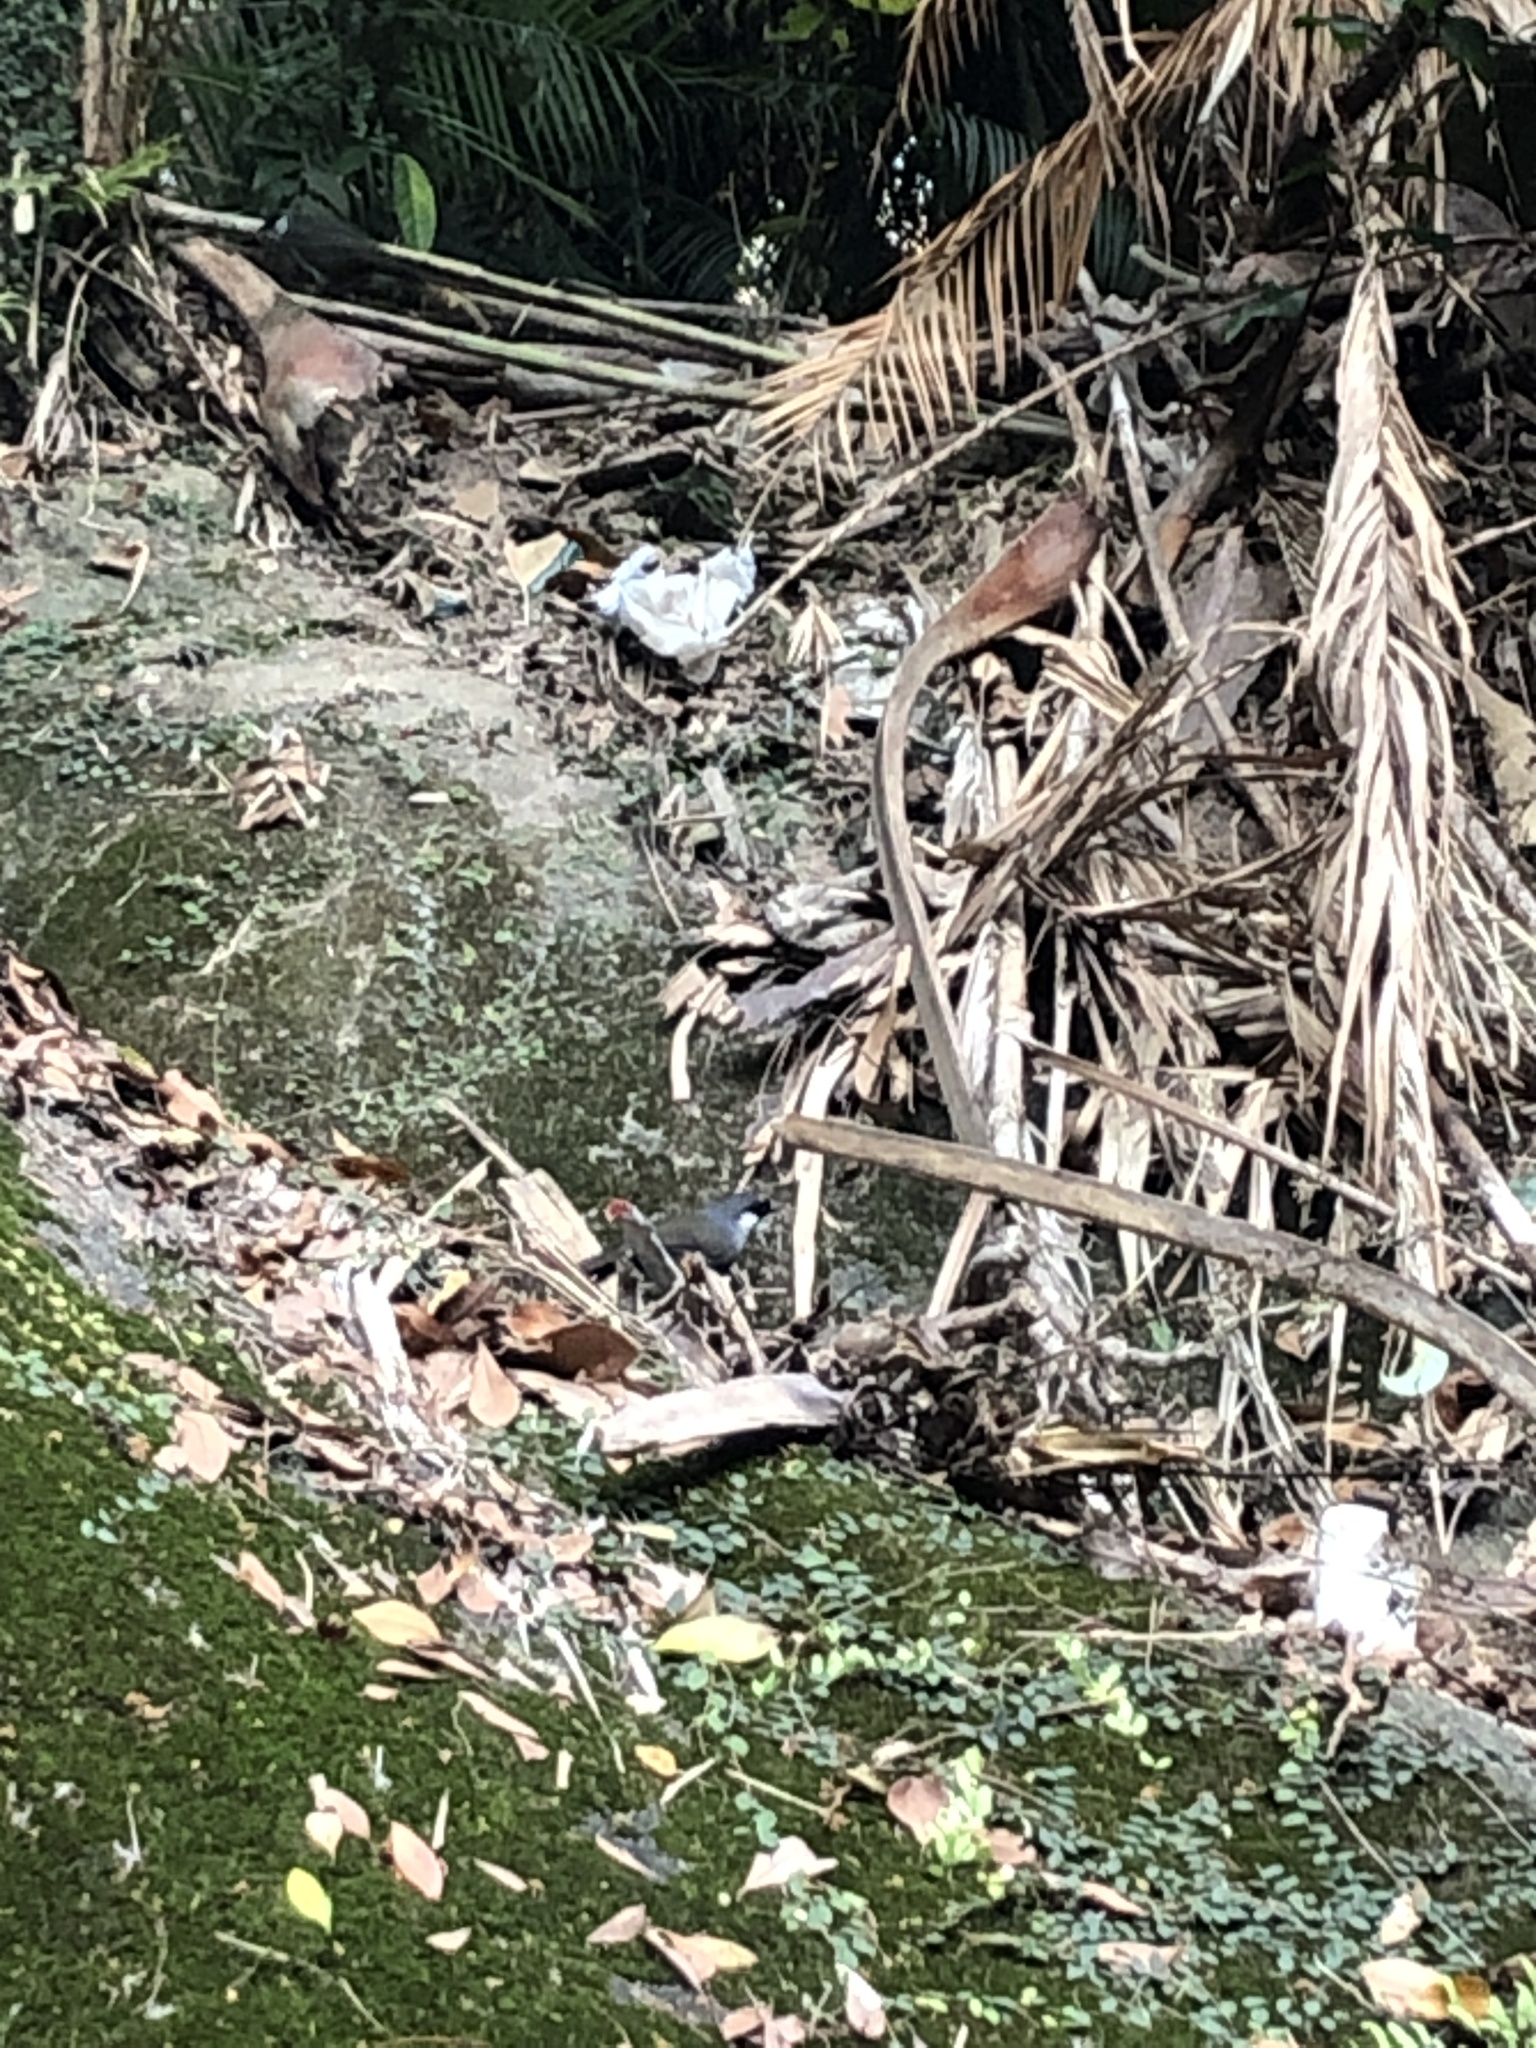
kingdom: Animalia
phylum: Chordata
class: Aves
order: Passeriformes
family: Leiothrichidae
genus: Garrulax
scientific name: Garrulax chinensis
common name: Black-throated laughingthrush
